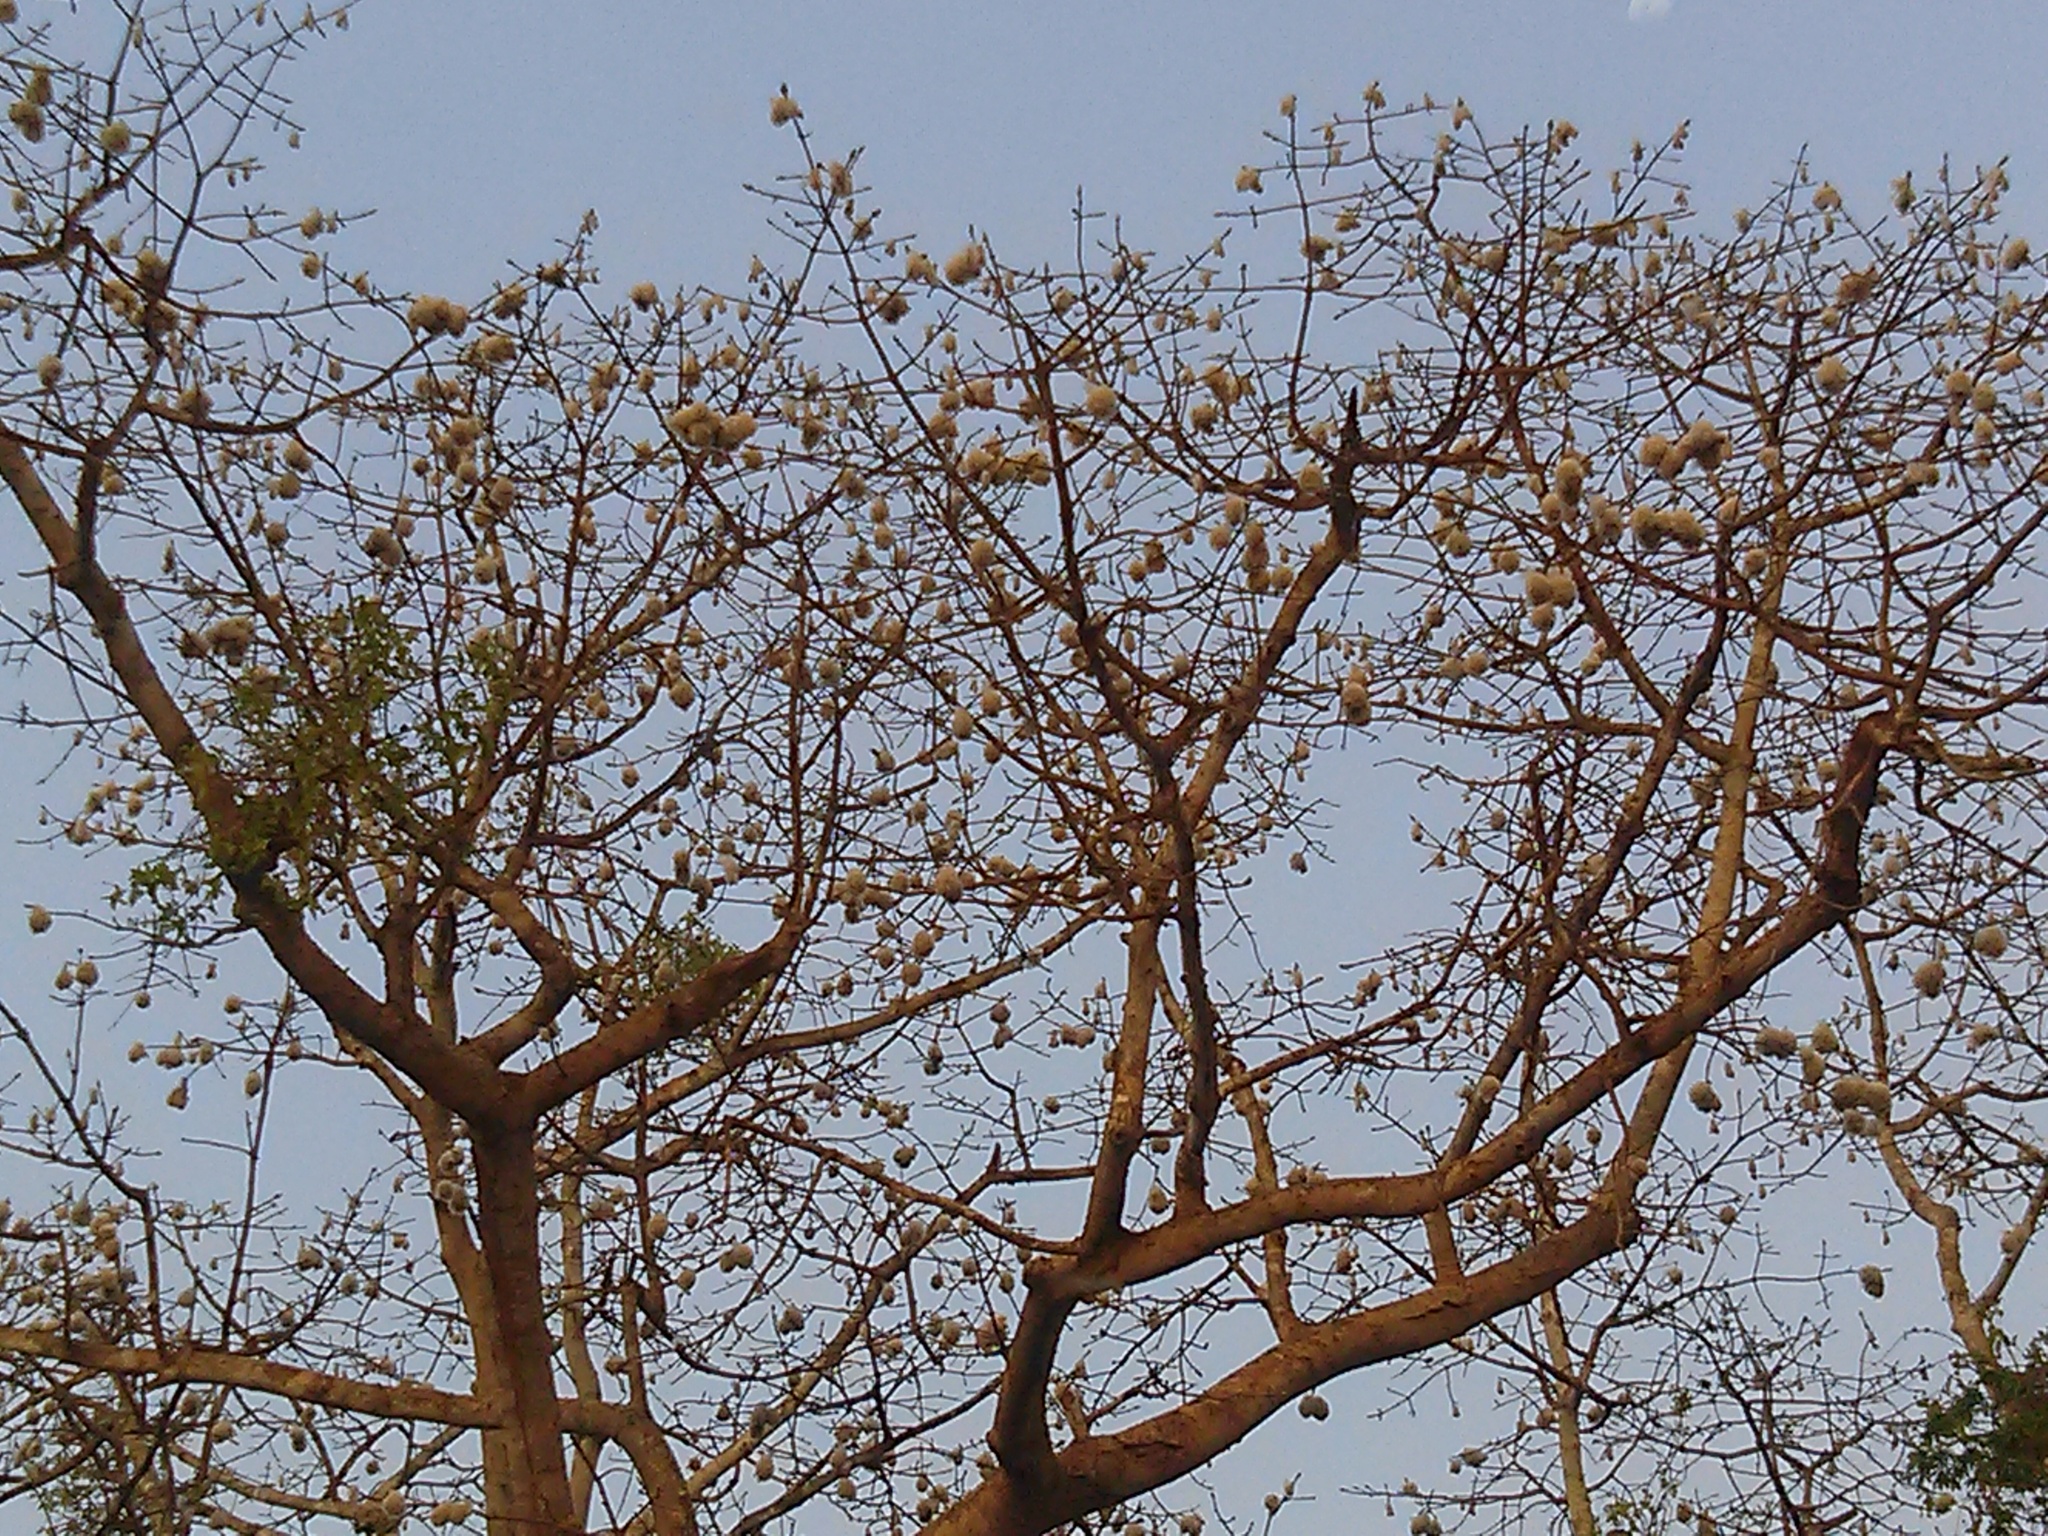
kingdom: Plantae
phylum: Tracheophyta
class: Magnoliopsida
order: Malvales
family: Malvaceae
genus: Ceiba
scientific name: Ceiba pentandra
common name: Kapok
